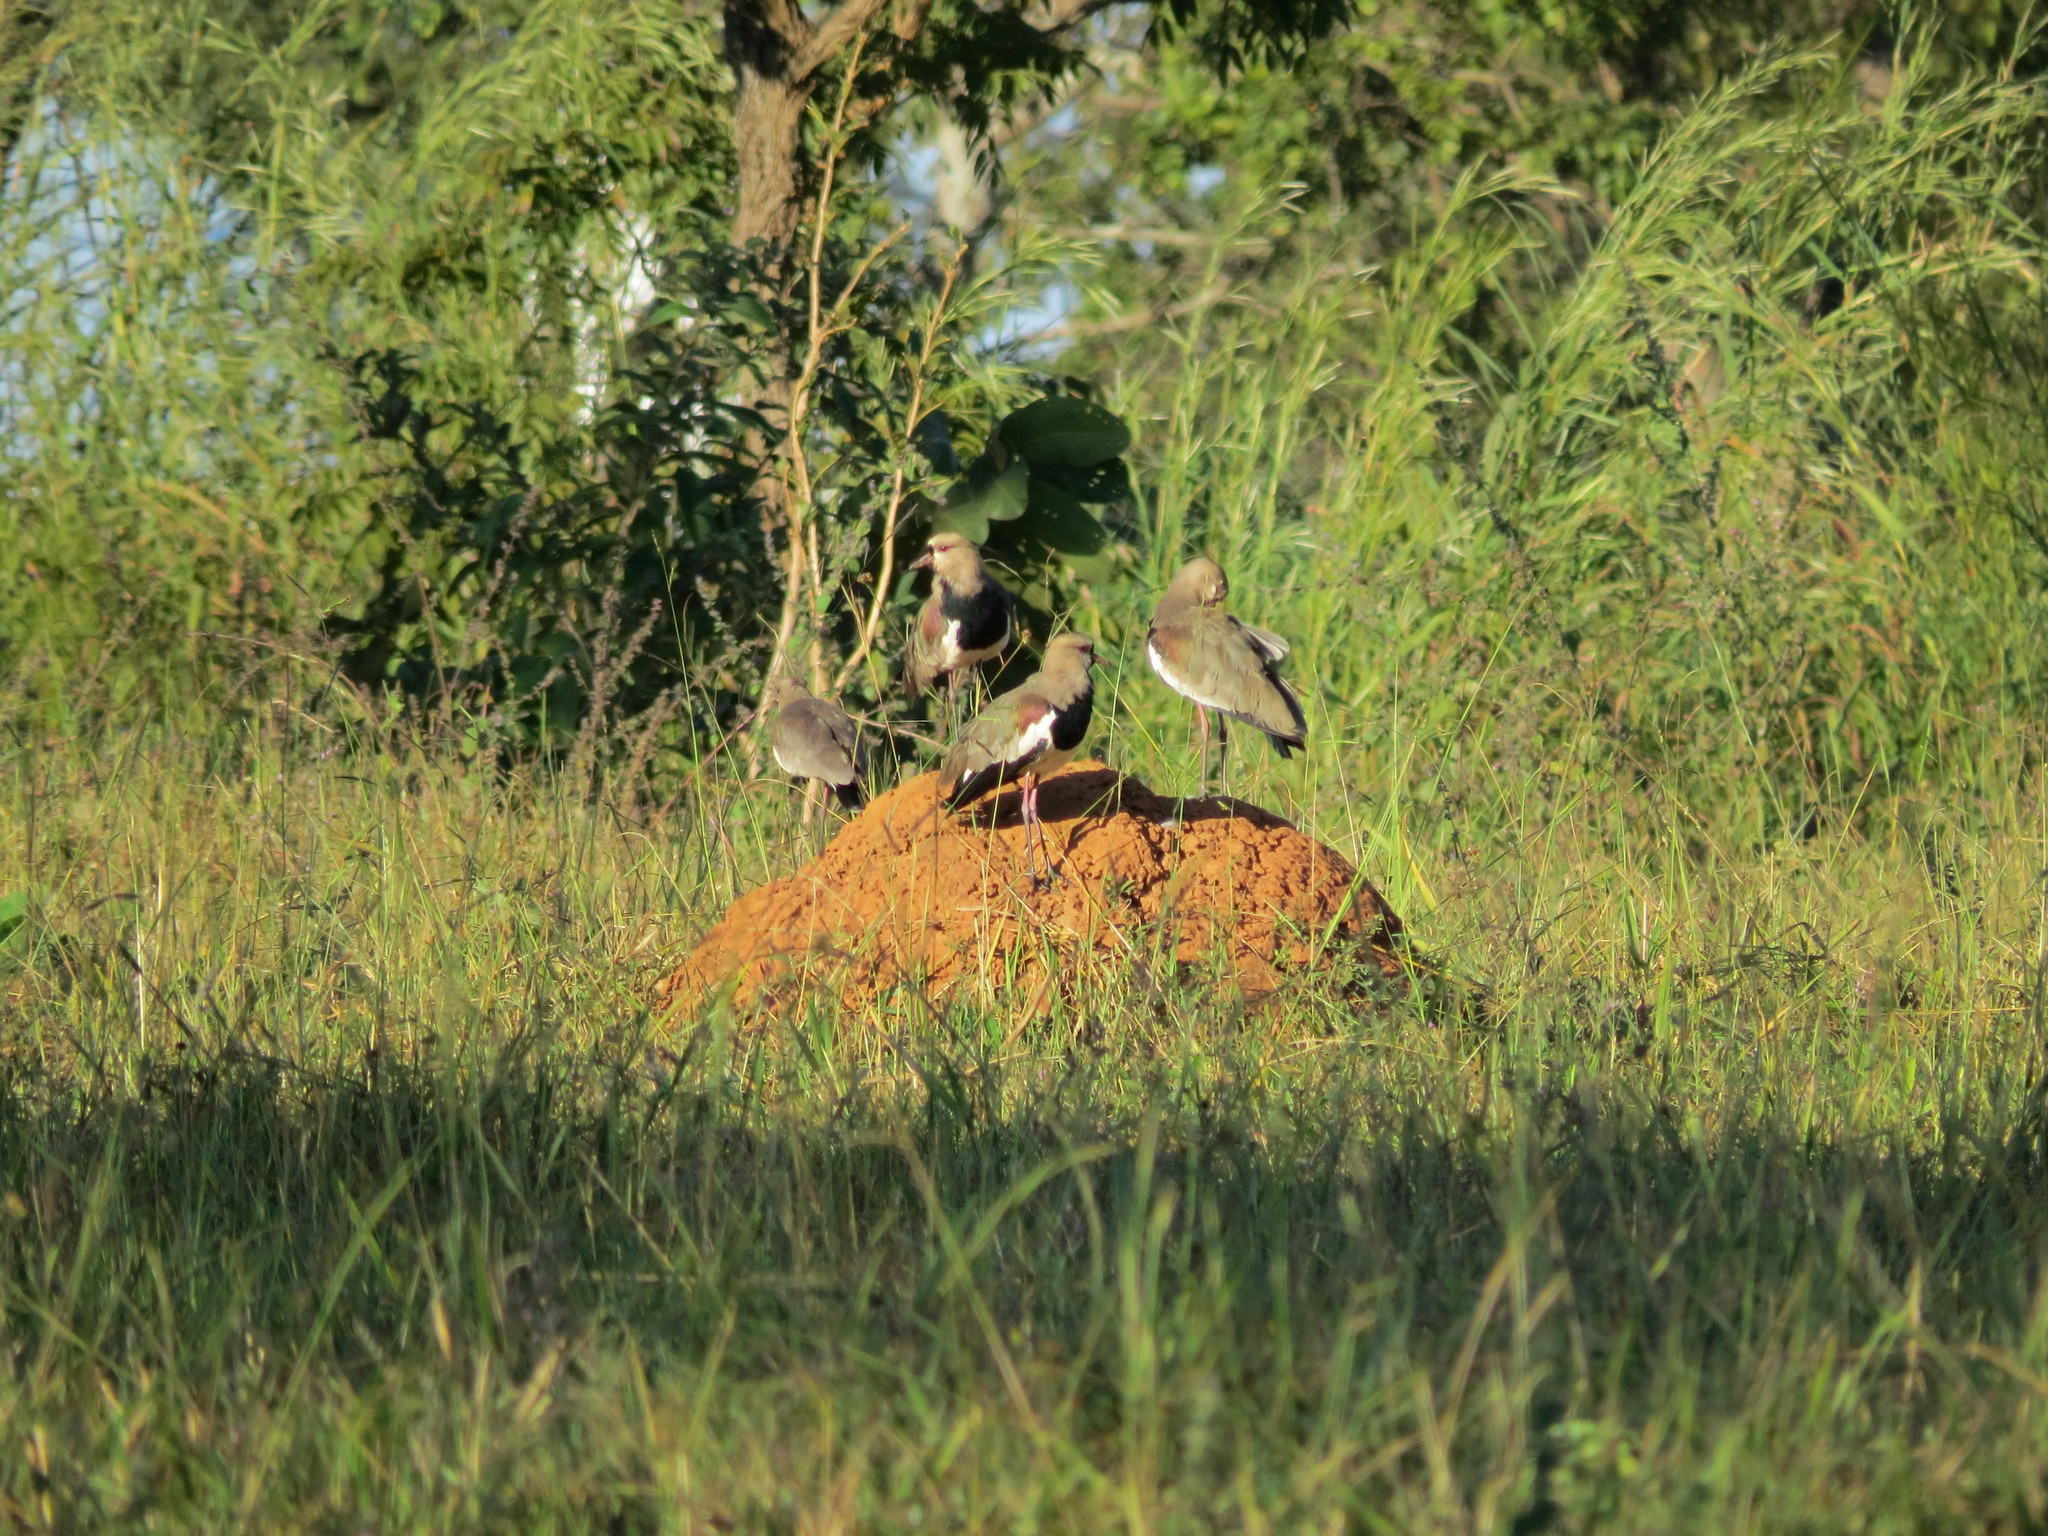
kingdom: Animalia
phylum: Chordata
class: Aves
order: Charadriiformes
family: Charadriidae
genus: Vanellus
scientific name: Vanellus chilensis
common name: Southern lapwing
